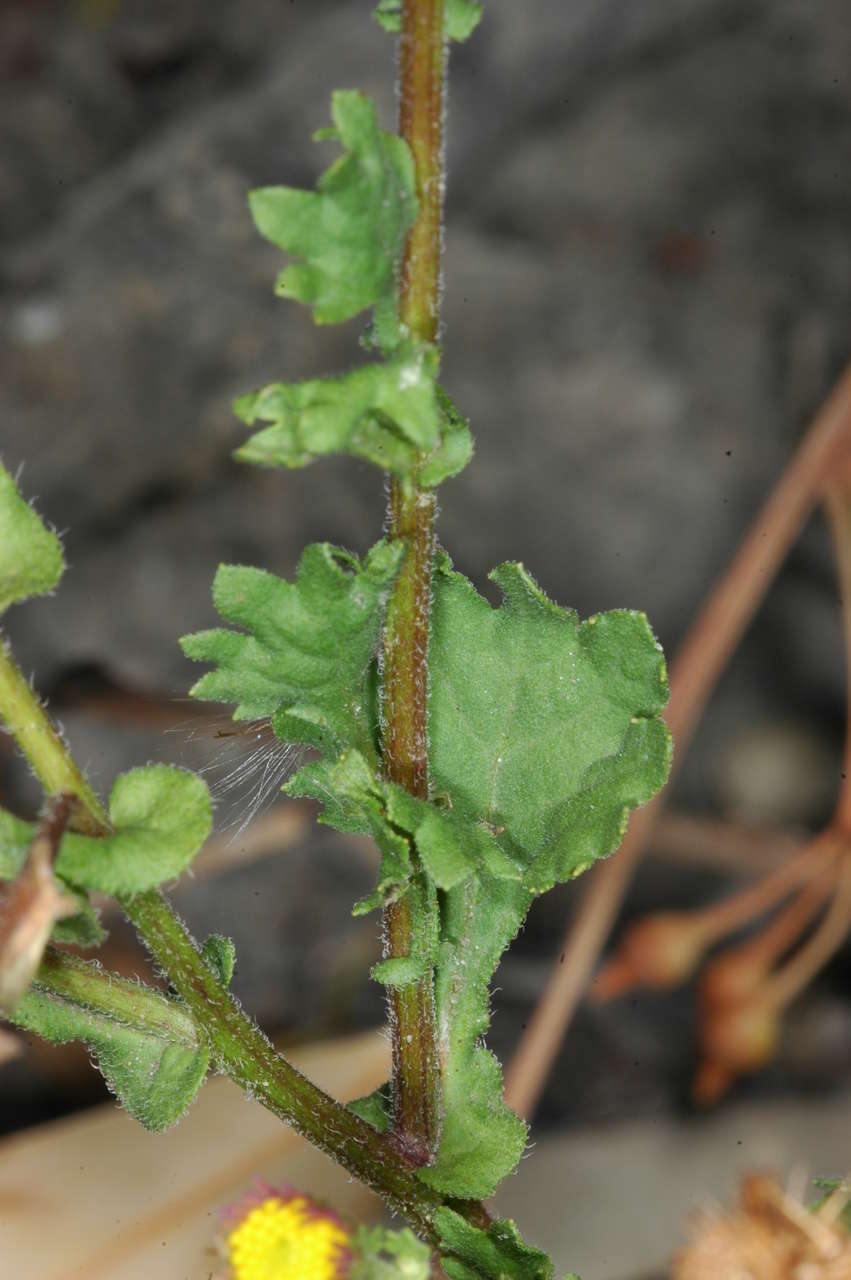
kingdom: Plantae
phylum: Tracheophyta
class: Magnoliopsida
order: Asterales
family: Asteraceae
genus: Calotis
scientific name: Calotis cuneifolia
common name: Bur-daisy
